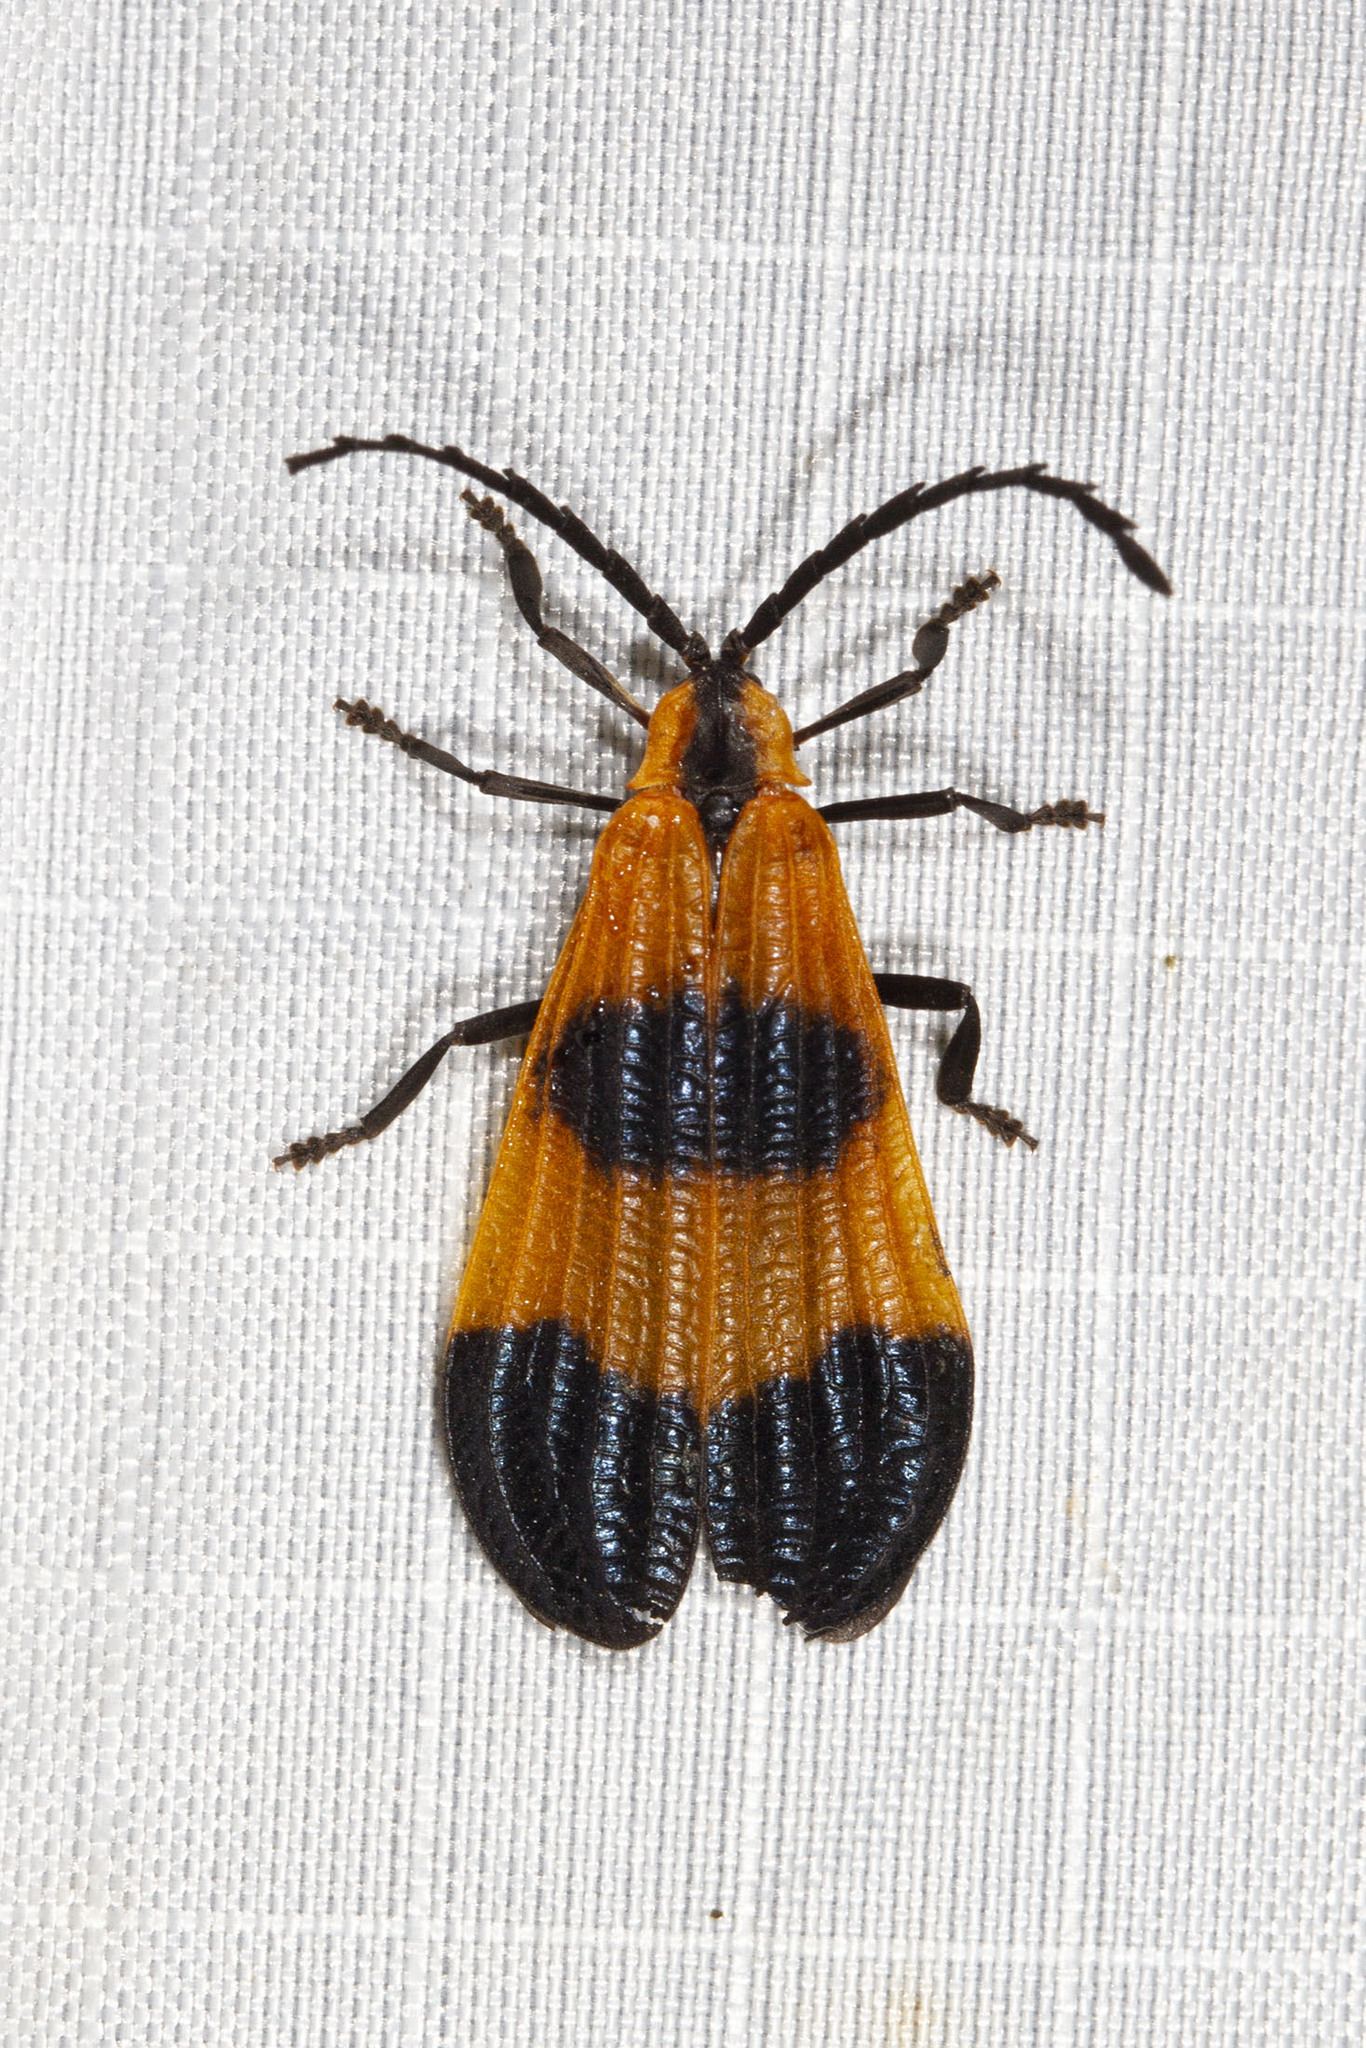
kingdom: Animalia
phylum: Arthropoda
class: Insecta
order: Coleoptera
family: Lycidae
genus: Calopteron
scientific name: Calopteron terminale
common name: End band net-winged beetle
